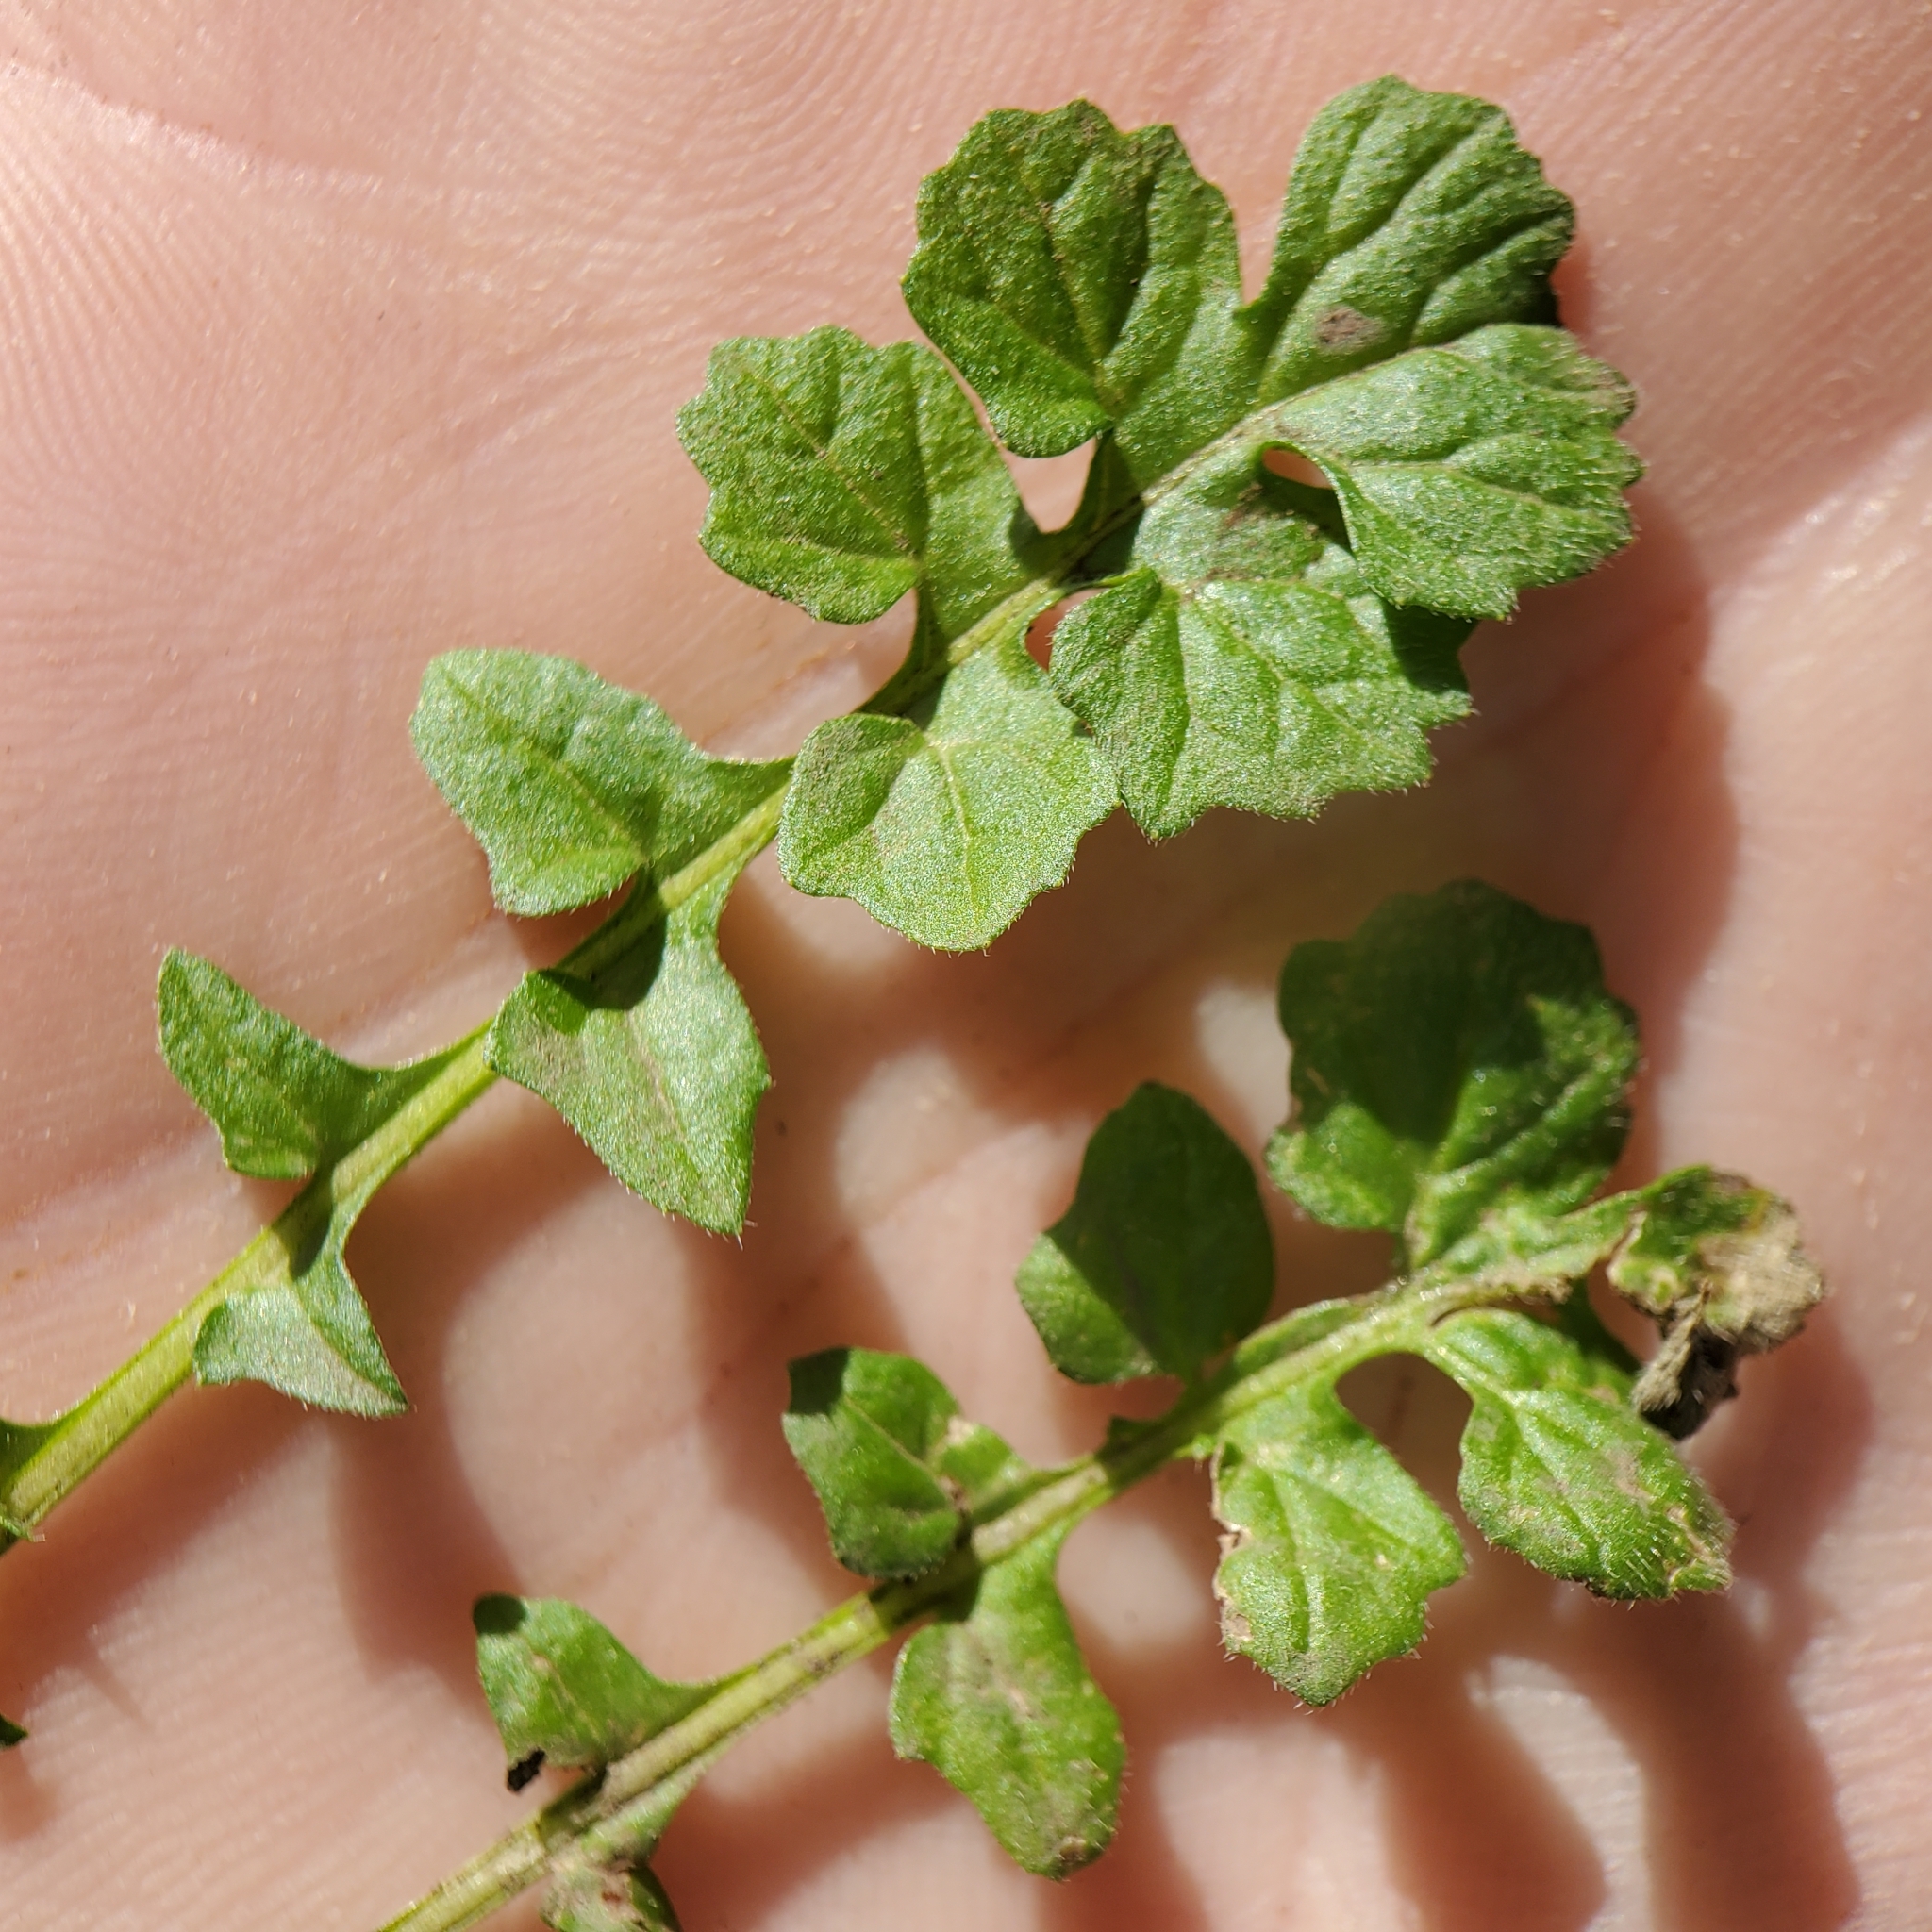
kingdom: Plantae
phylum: Tracheophyta
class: Magnoliopsida
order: Brassicales
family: Brassicaceae
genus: Sisymbrium
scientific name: Sisymbrium officinale
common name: Hedge mustard
